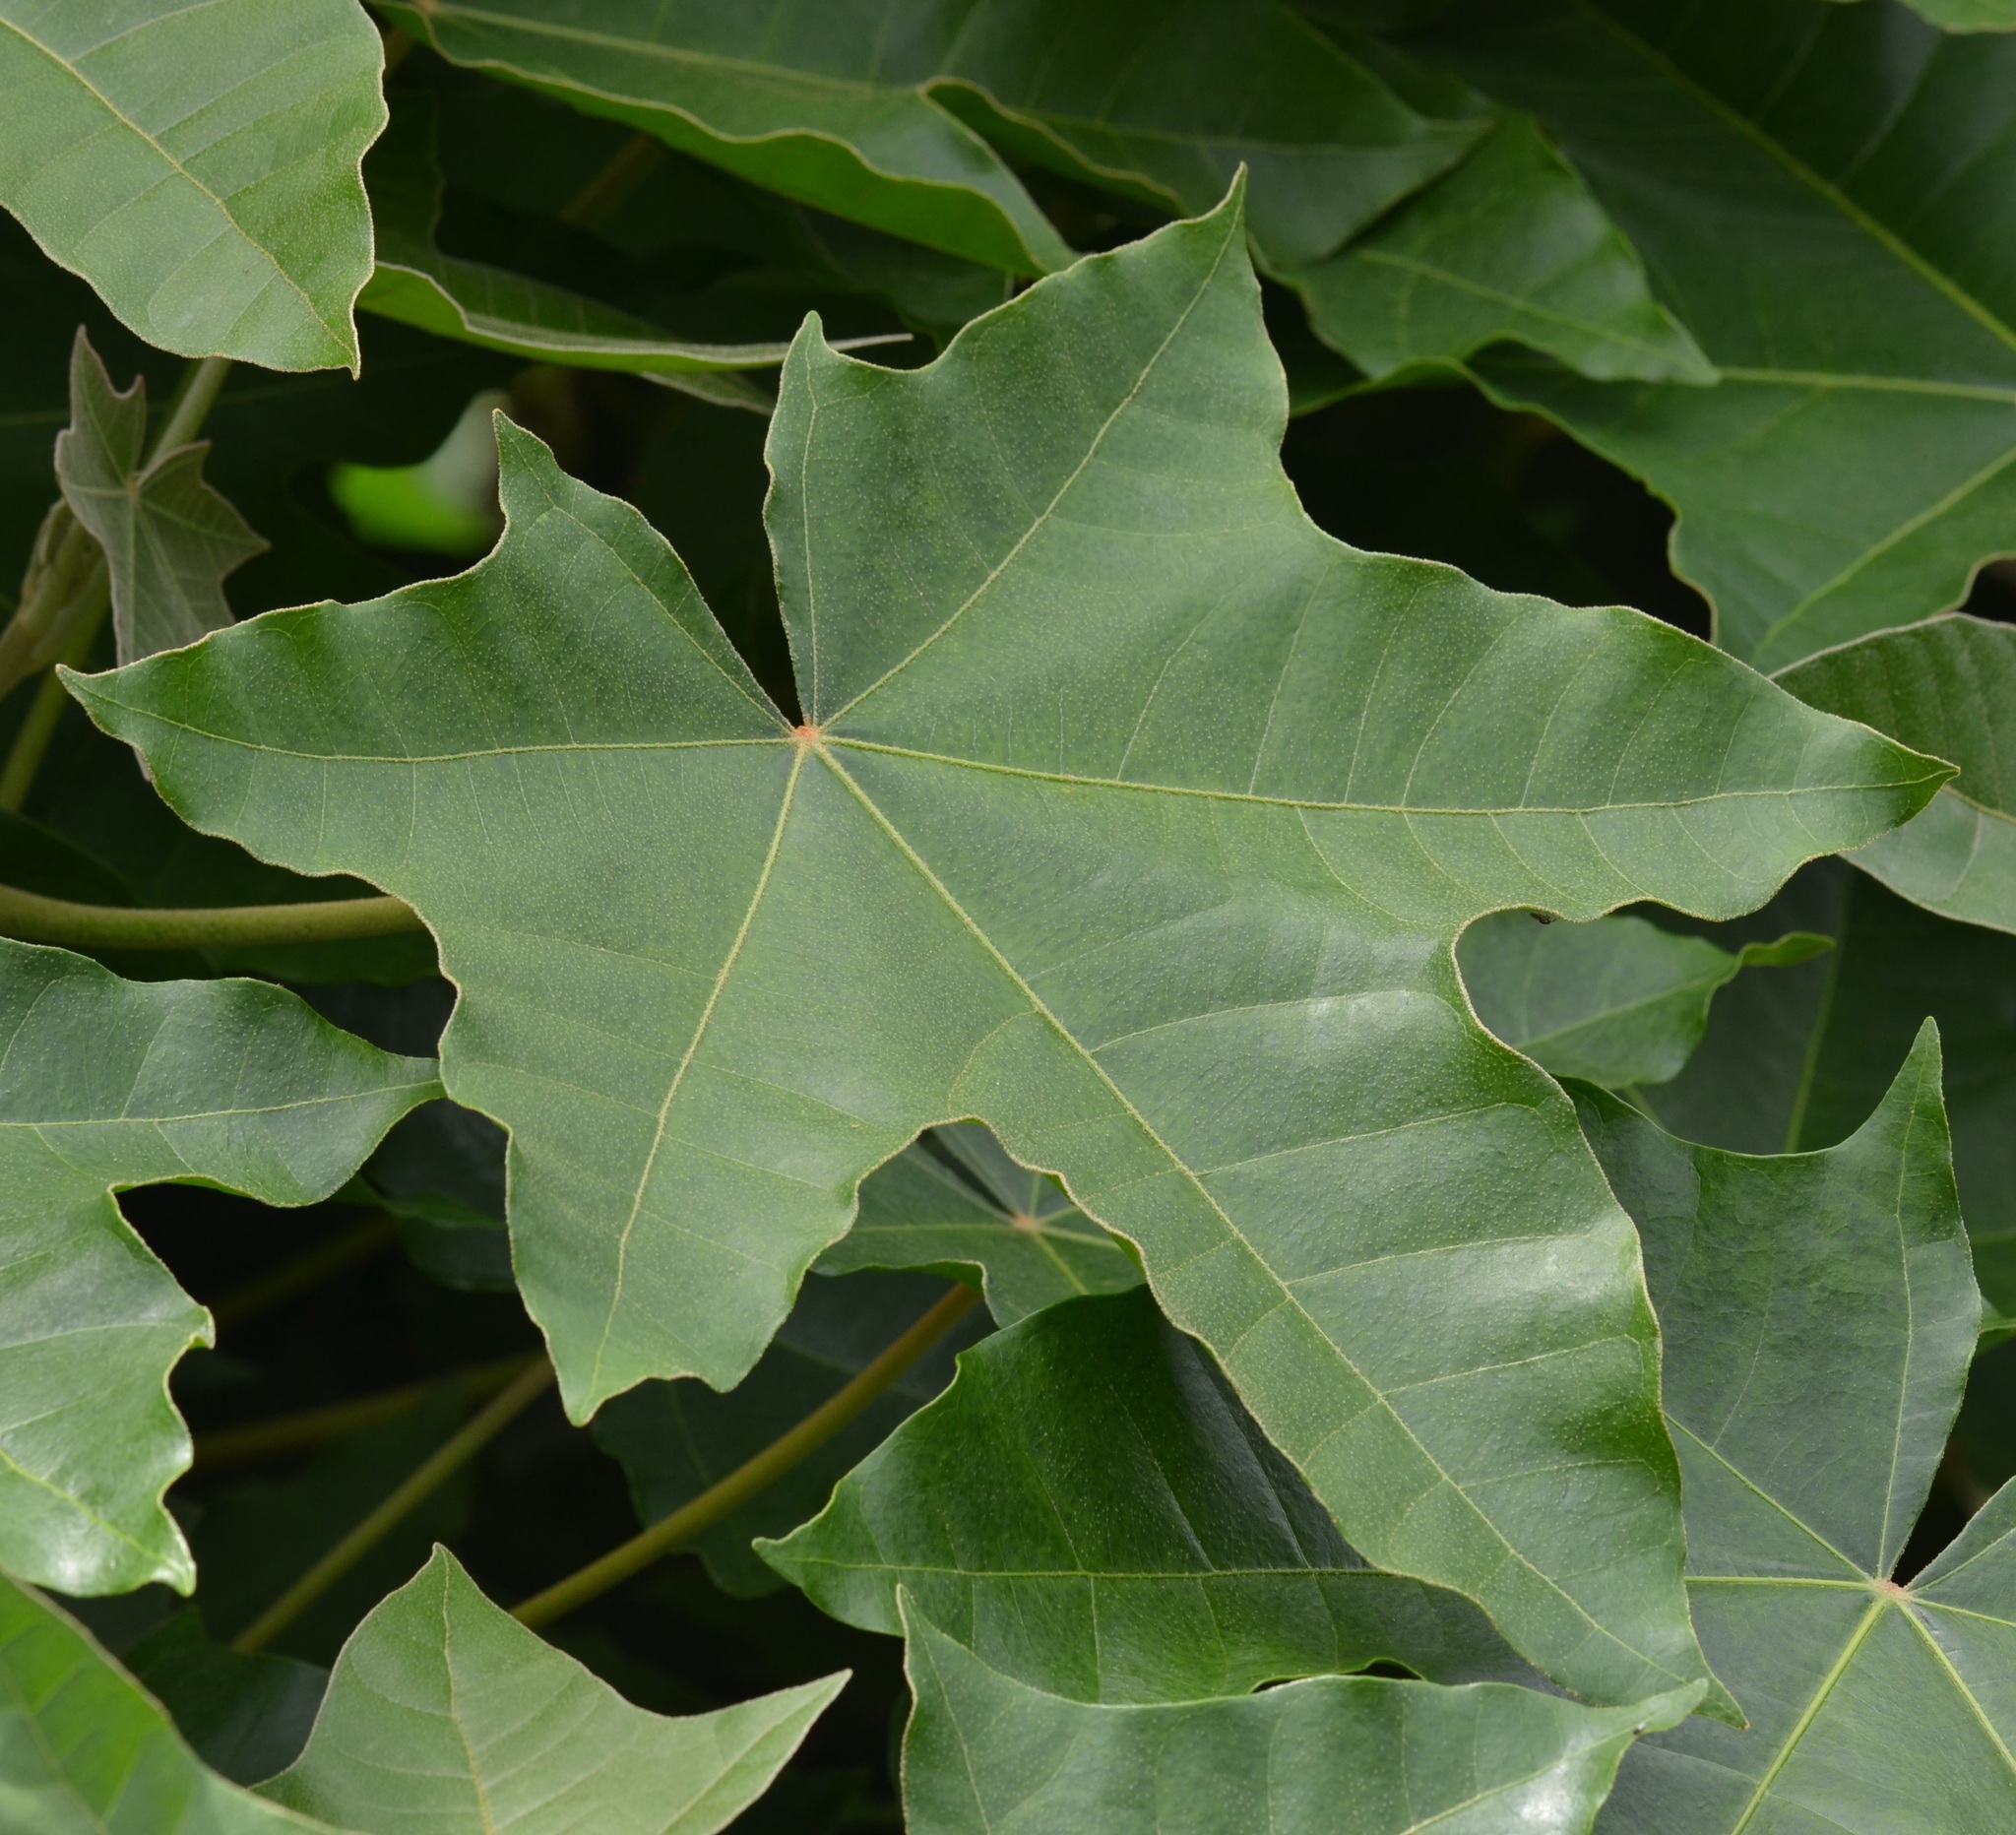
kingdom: Plantae
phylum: Tracheophyta
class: Magnoliopsida
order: Malpighiales
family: Euphorbiaceae
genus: Aleurites
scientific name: Aleurites moluccanus
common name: Candlenut tree
